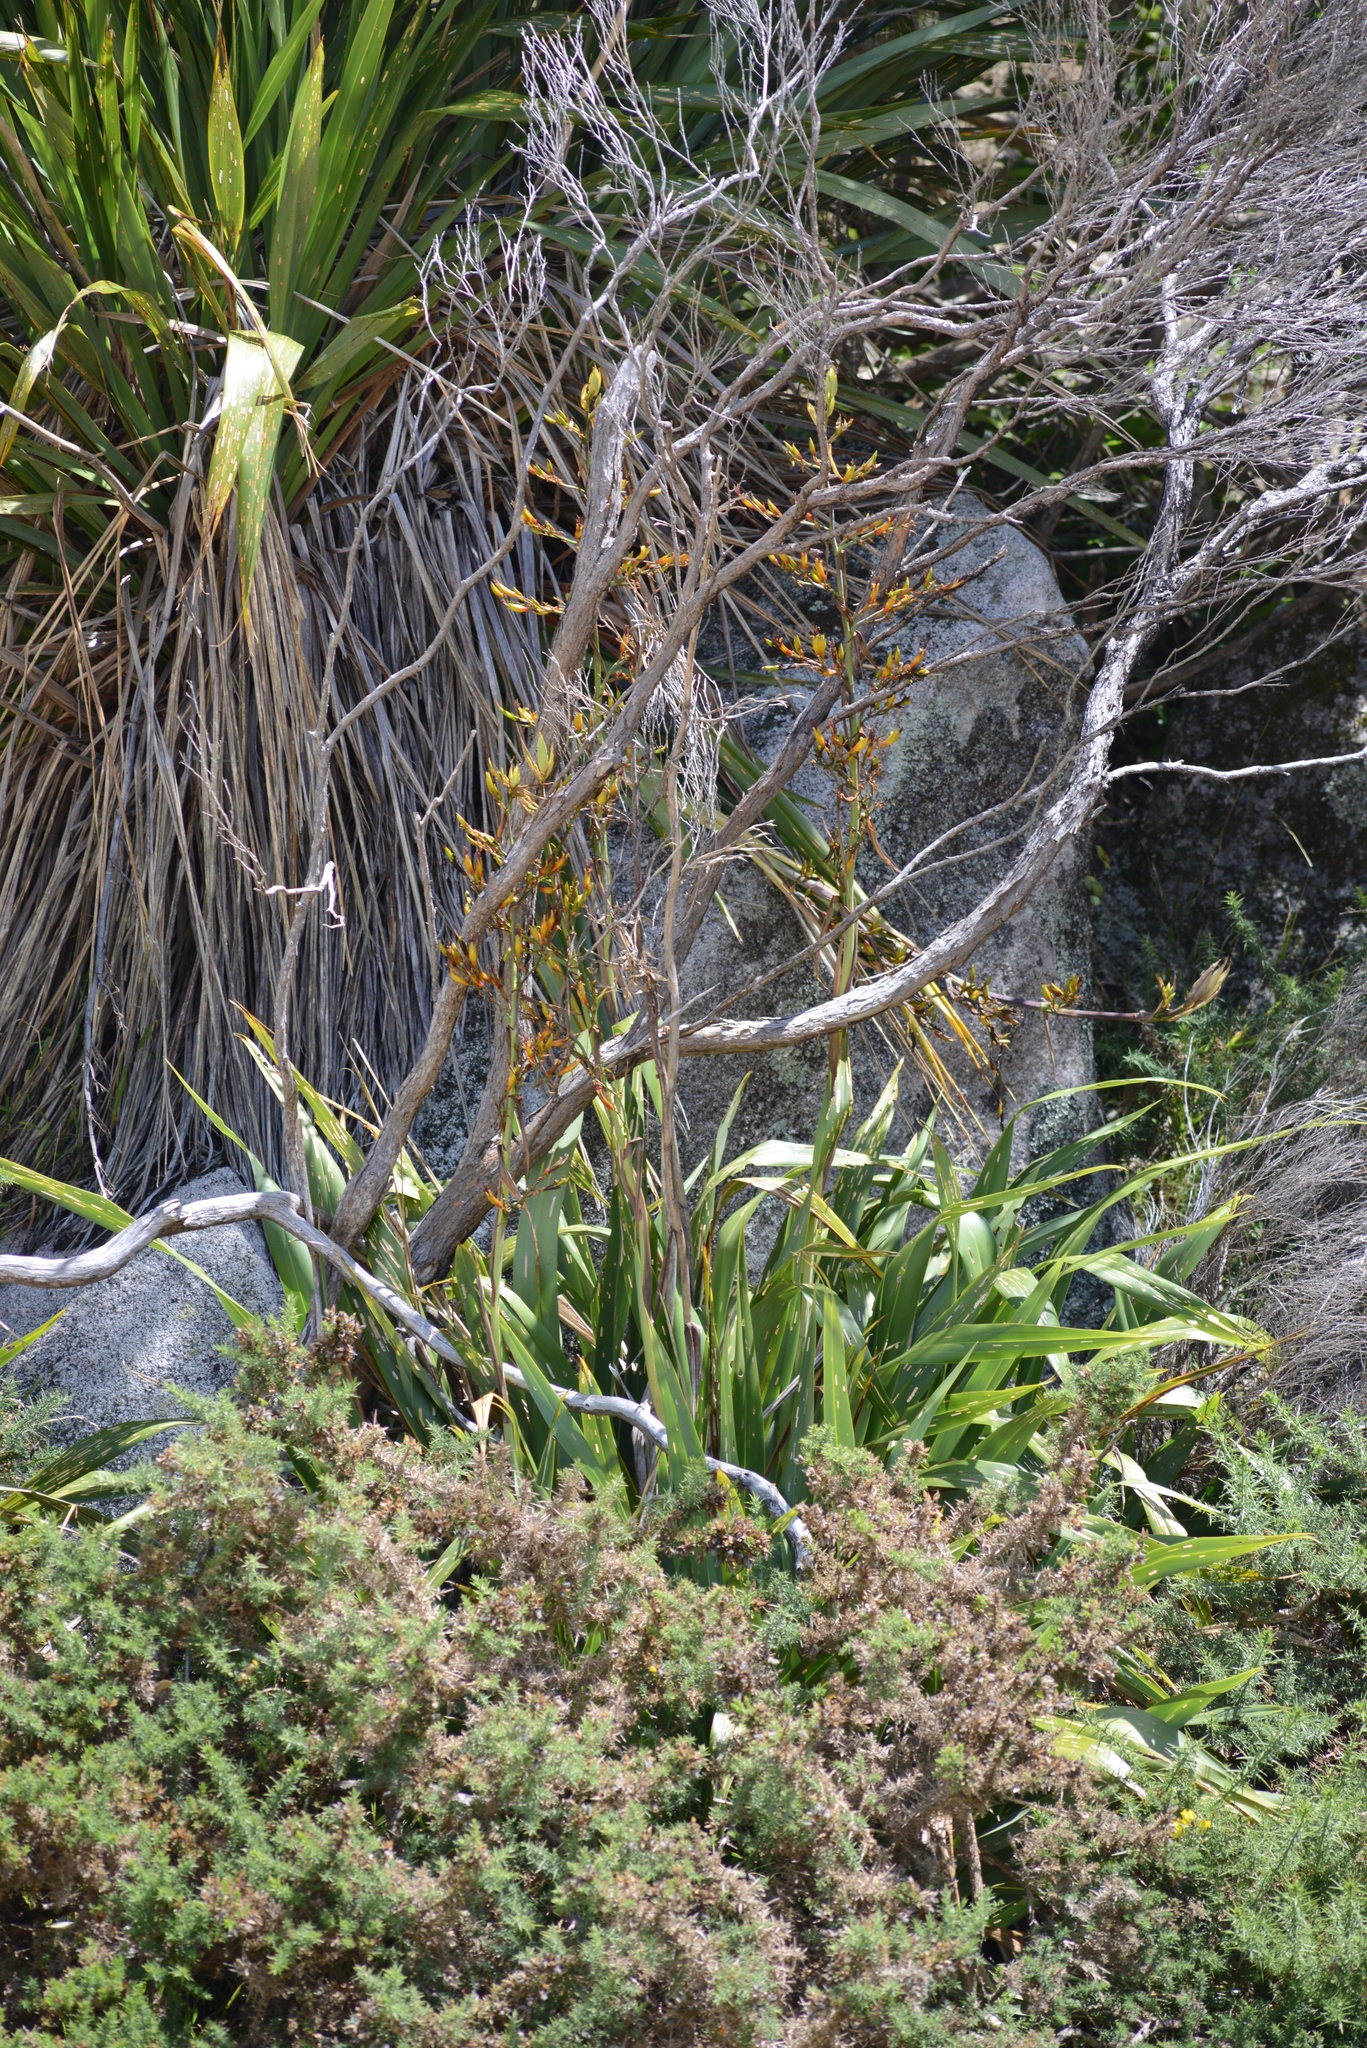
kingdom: Plantae
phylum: Tracheophyta
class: Liliopsida
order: Asparagales
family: Asphodelaceae
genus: Phormium
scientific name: Phormium colensoi
